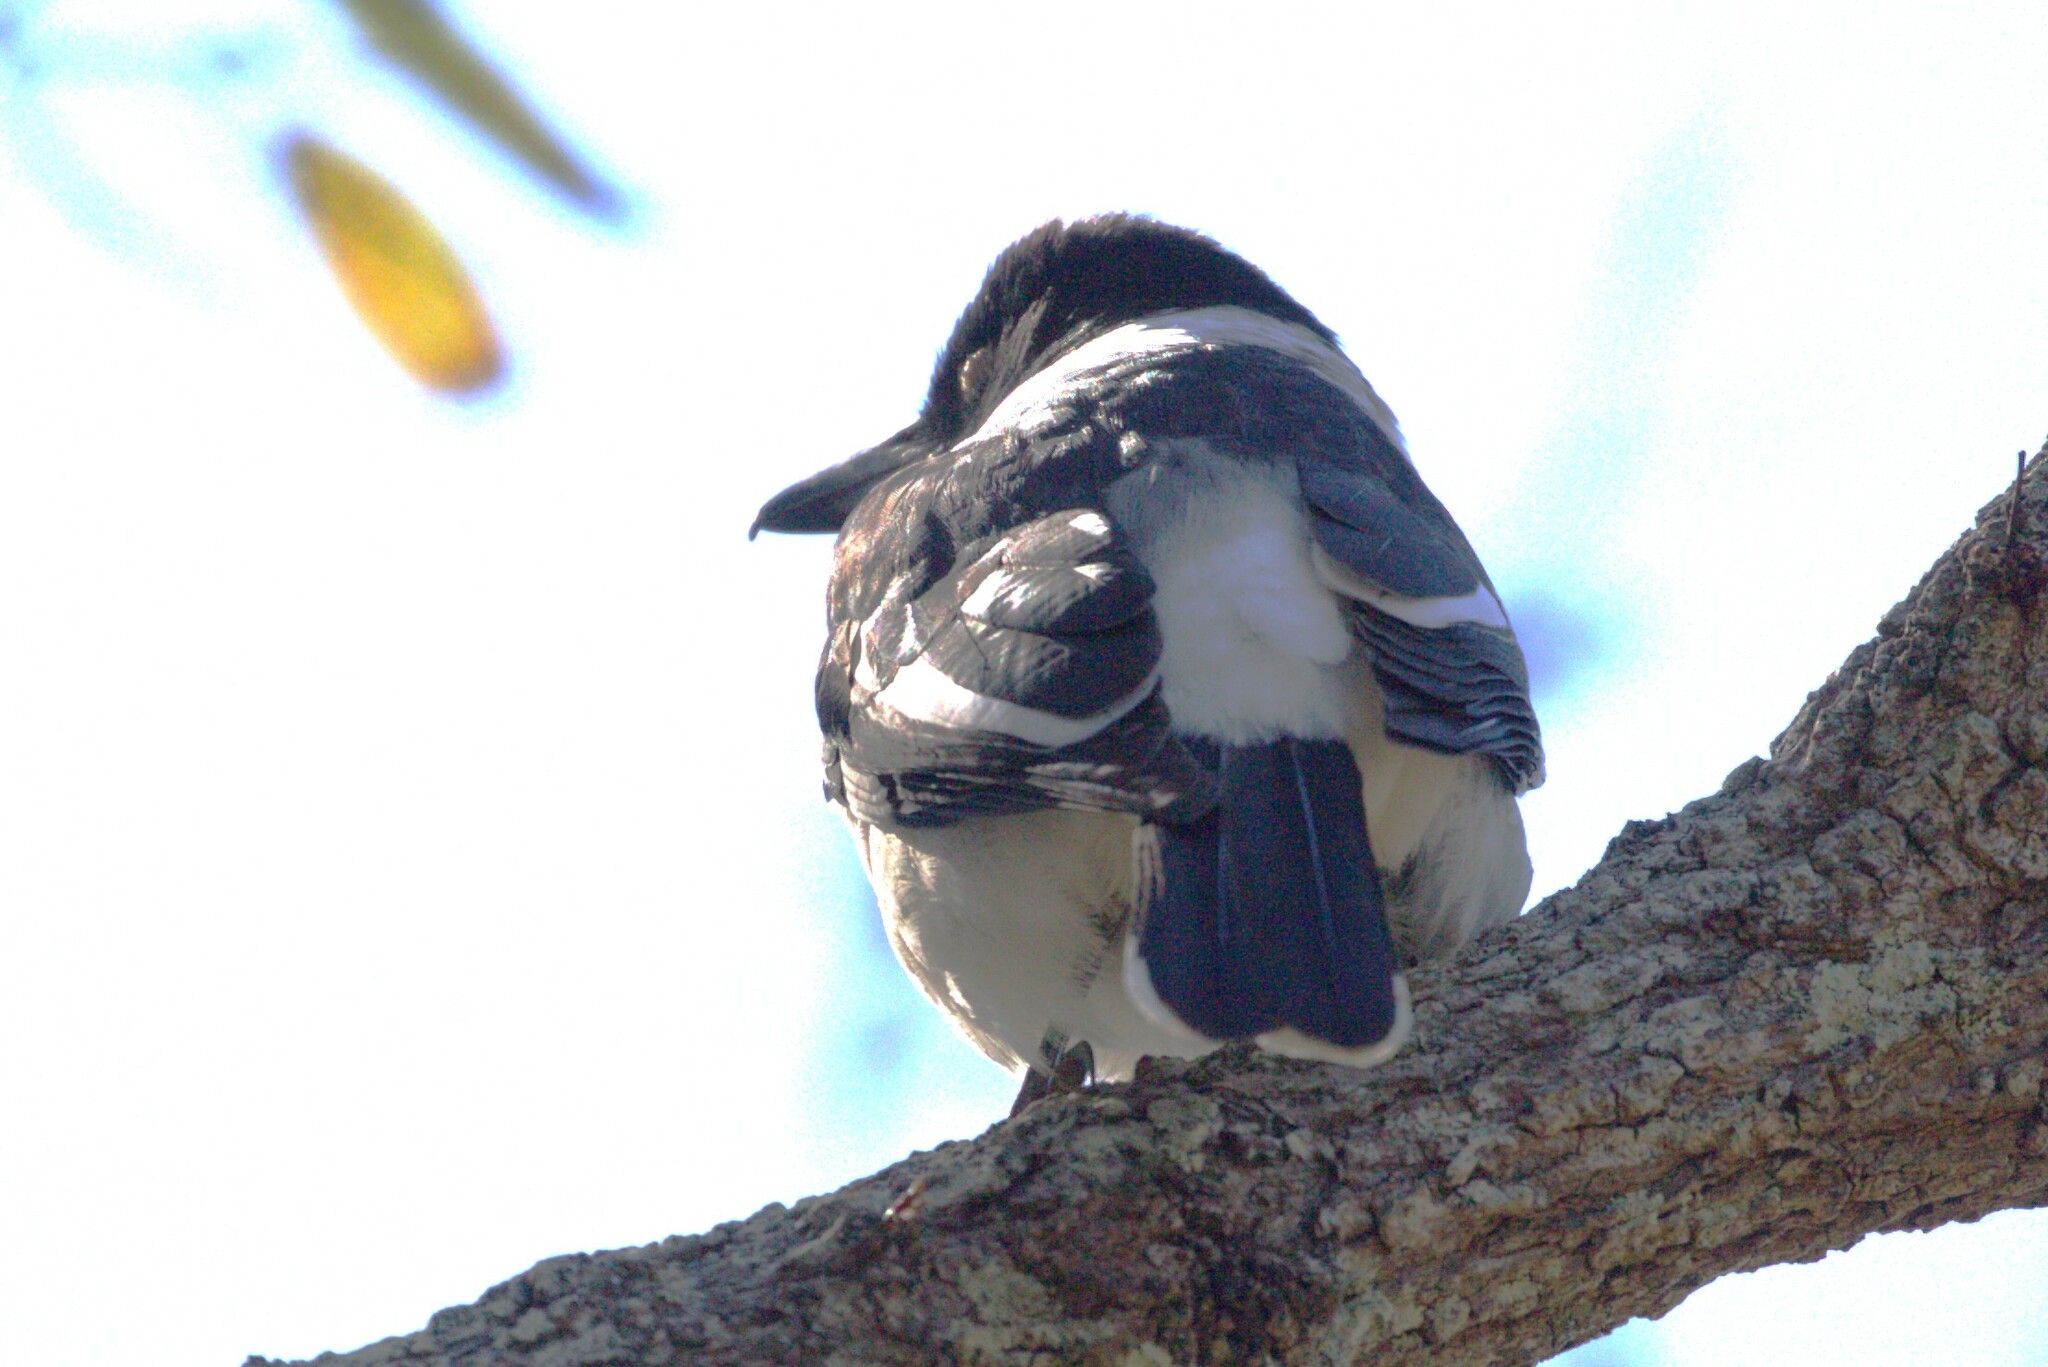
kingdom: Animalia
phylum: Chordata
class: Aves
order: Passeriformes
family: Cracticidae
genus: Cracticus
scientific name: Cracticus nigrogularis
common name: Pied butcherbird
